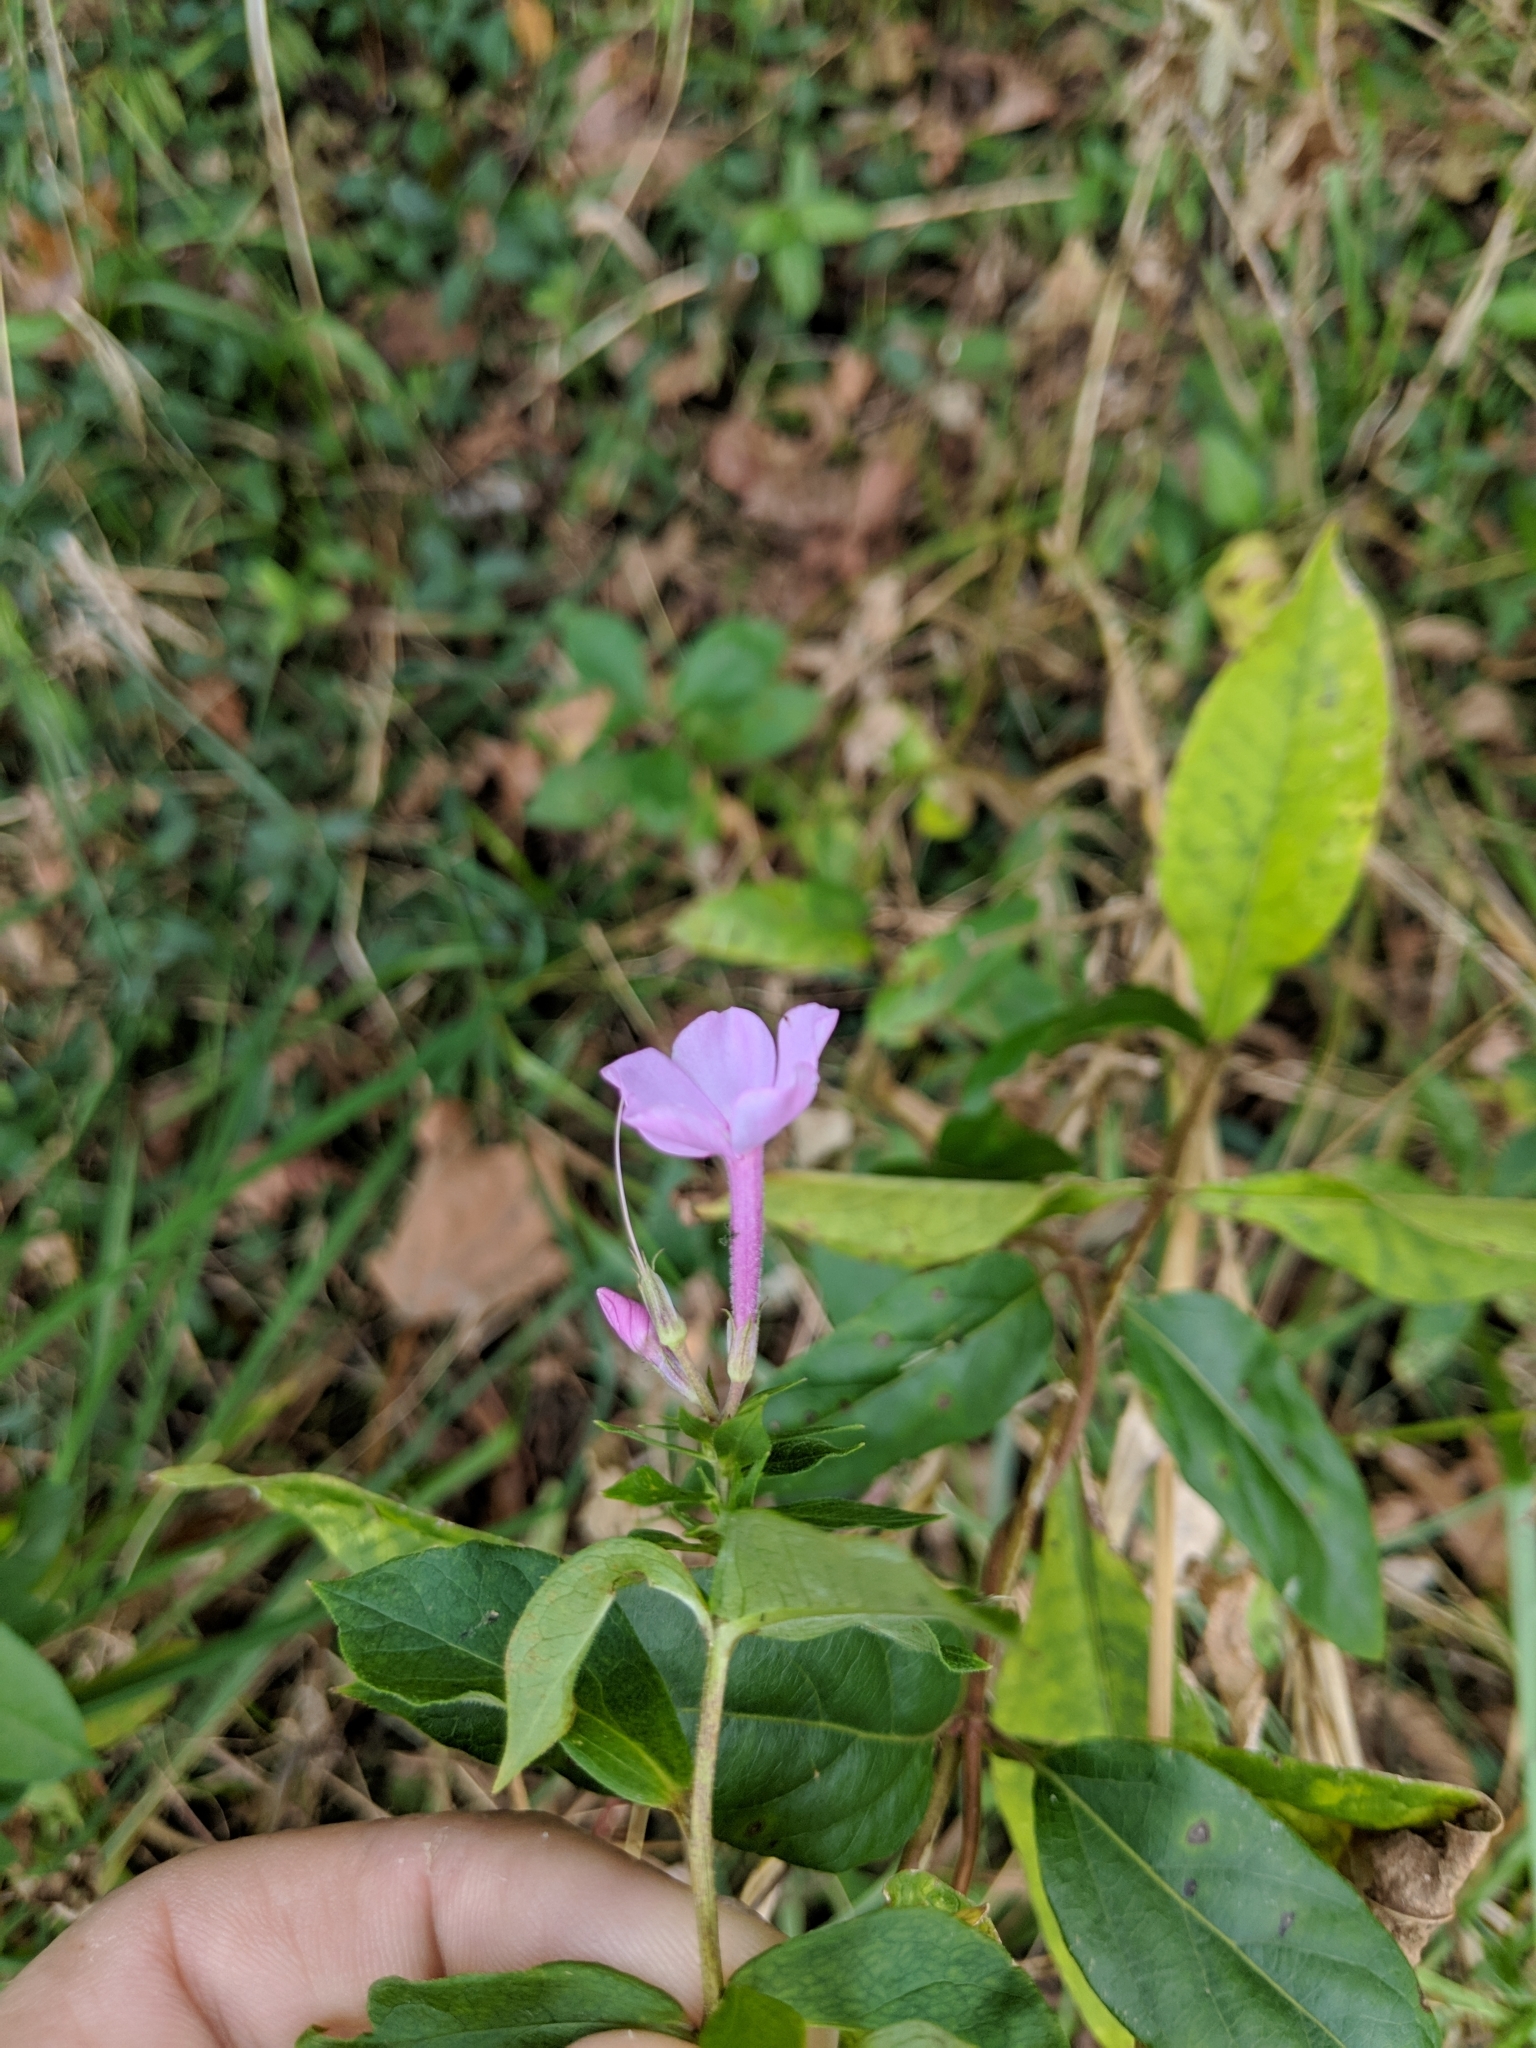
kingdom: Plantae
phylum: Tracheophyta
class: Magnoliopsida
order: Ericales
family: Polemoniaceae
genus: Phlox
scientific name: Phlox paniculata
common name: Fall phlox
